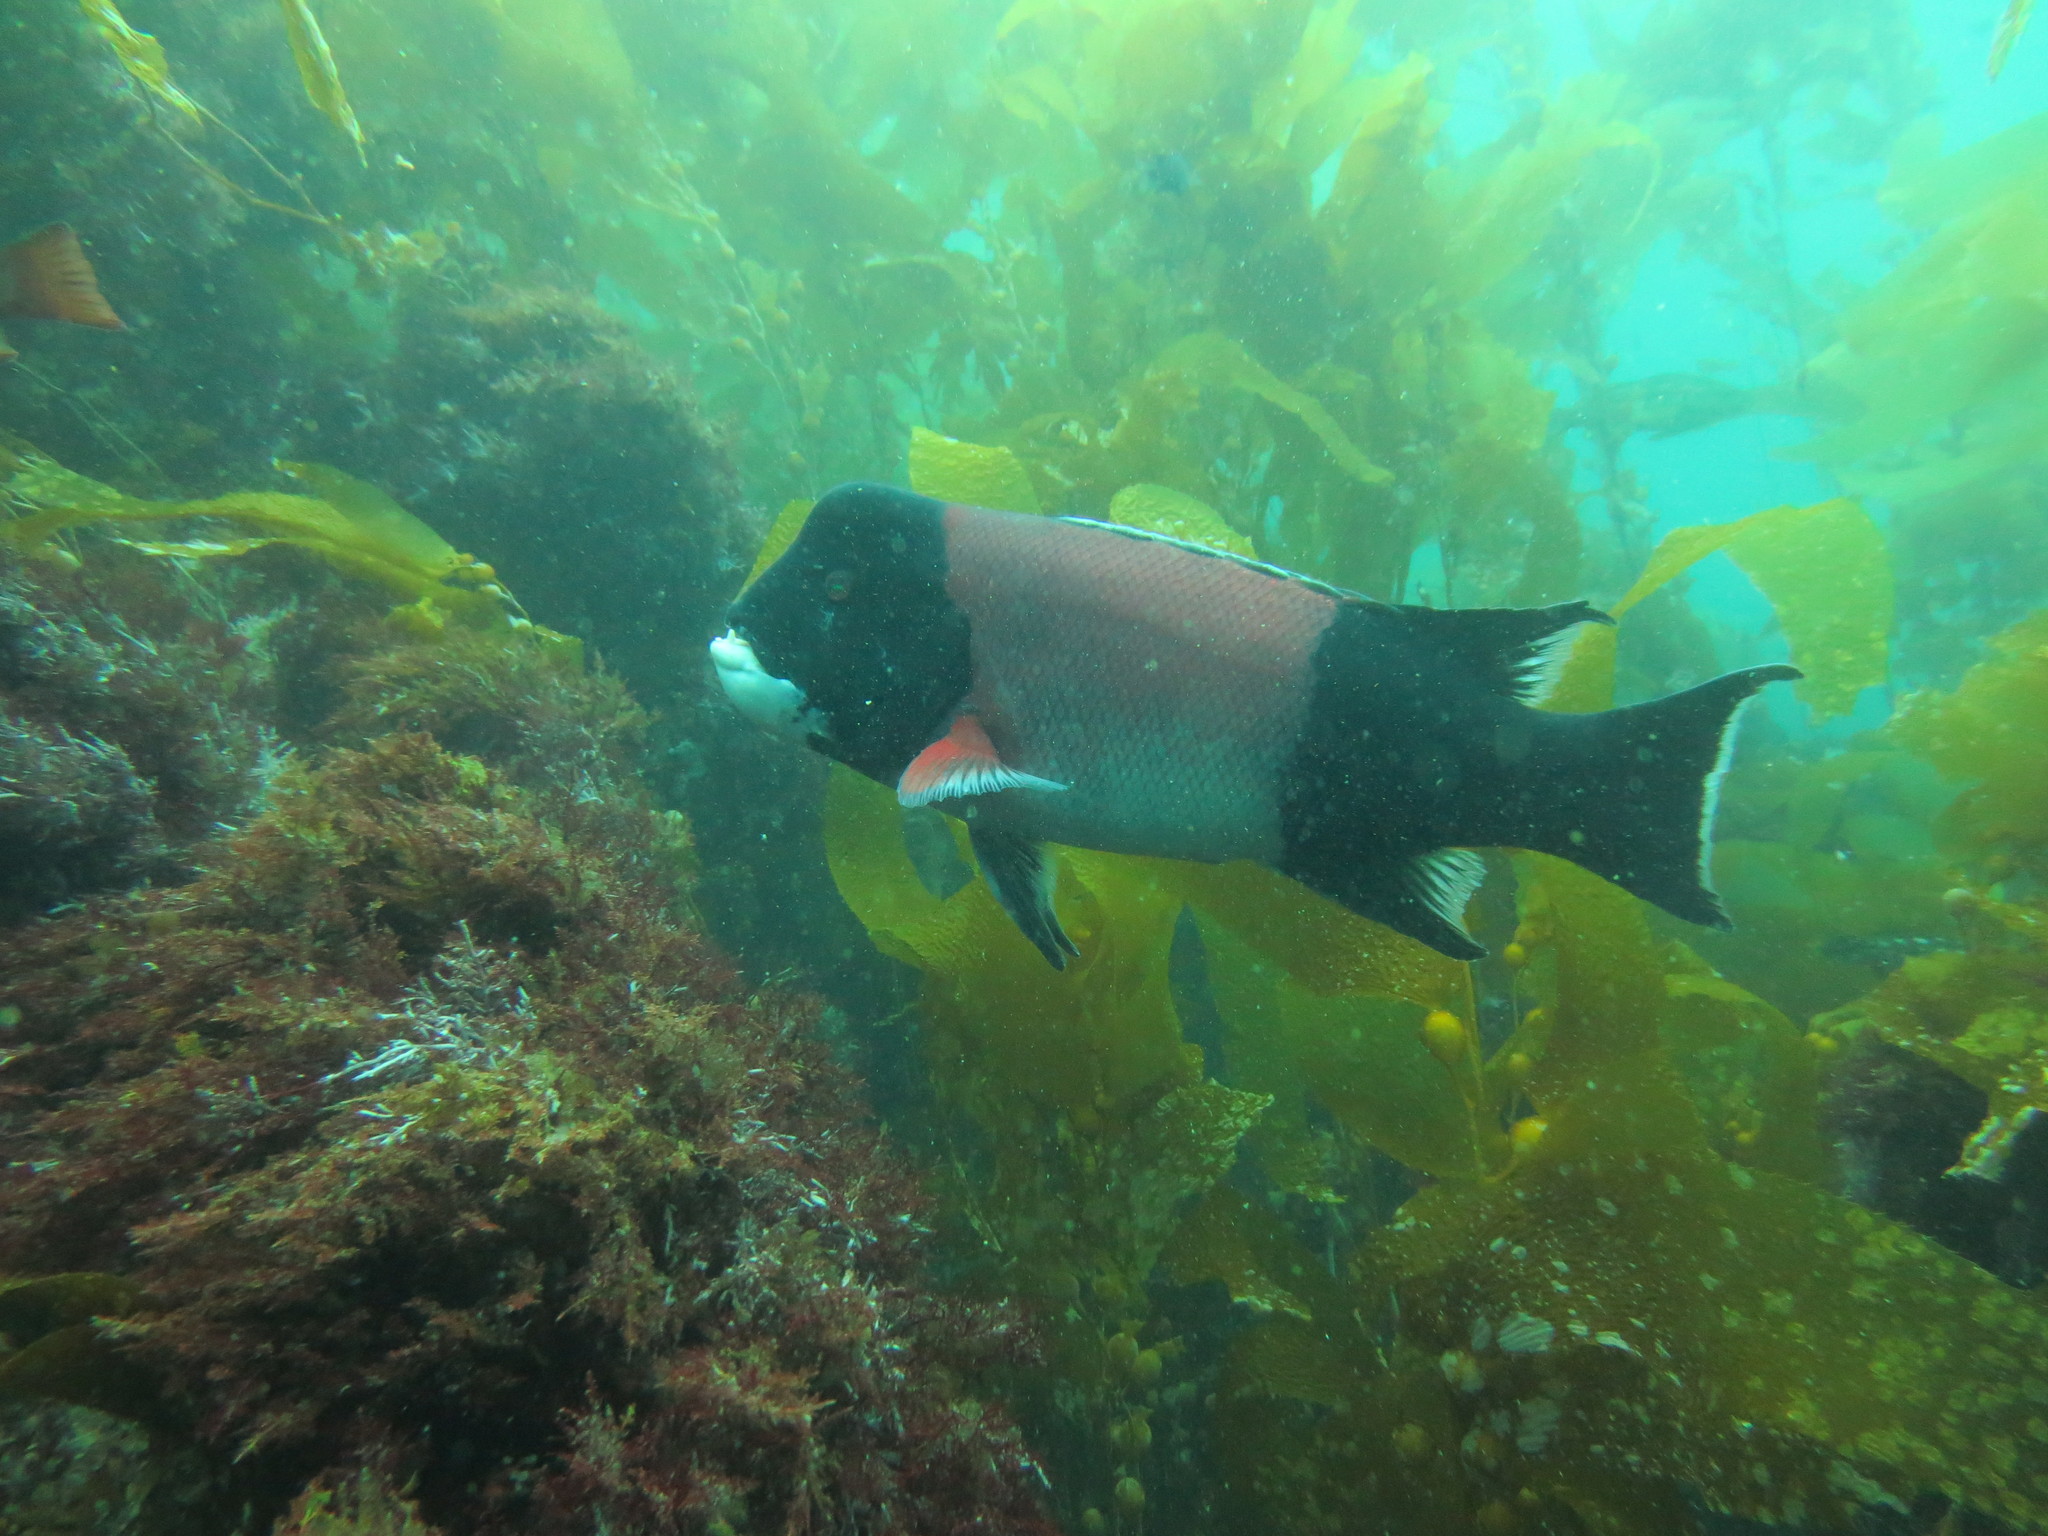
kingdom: Animalia
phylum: Chordata
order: Perciformes
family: Labridae
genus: Semicossyphus
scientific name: Semicossyphus pulcher
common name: California sheephead
